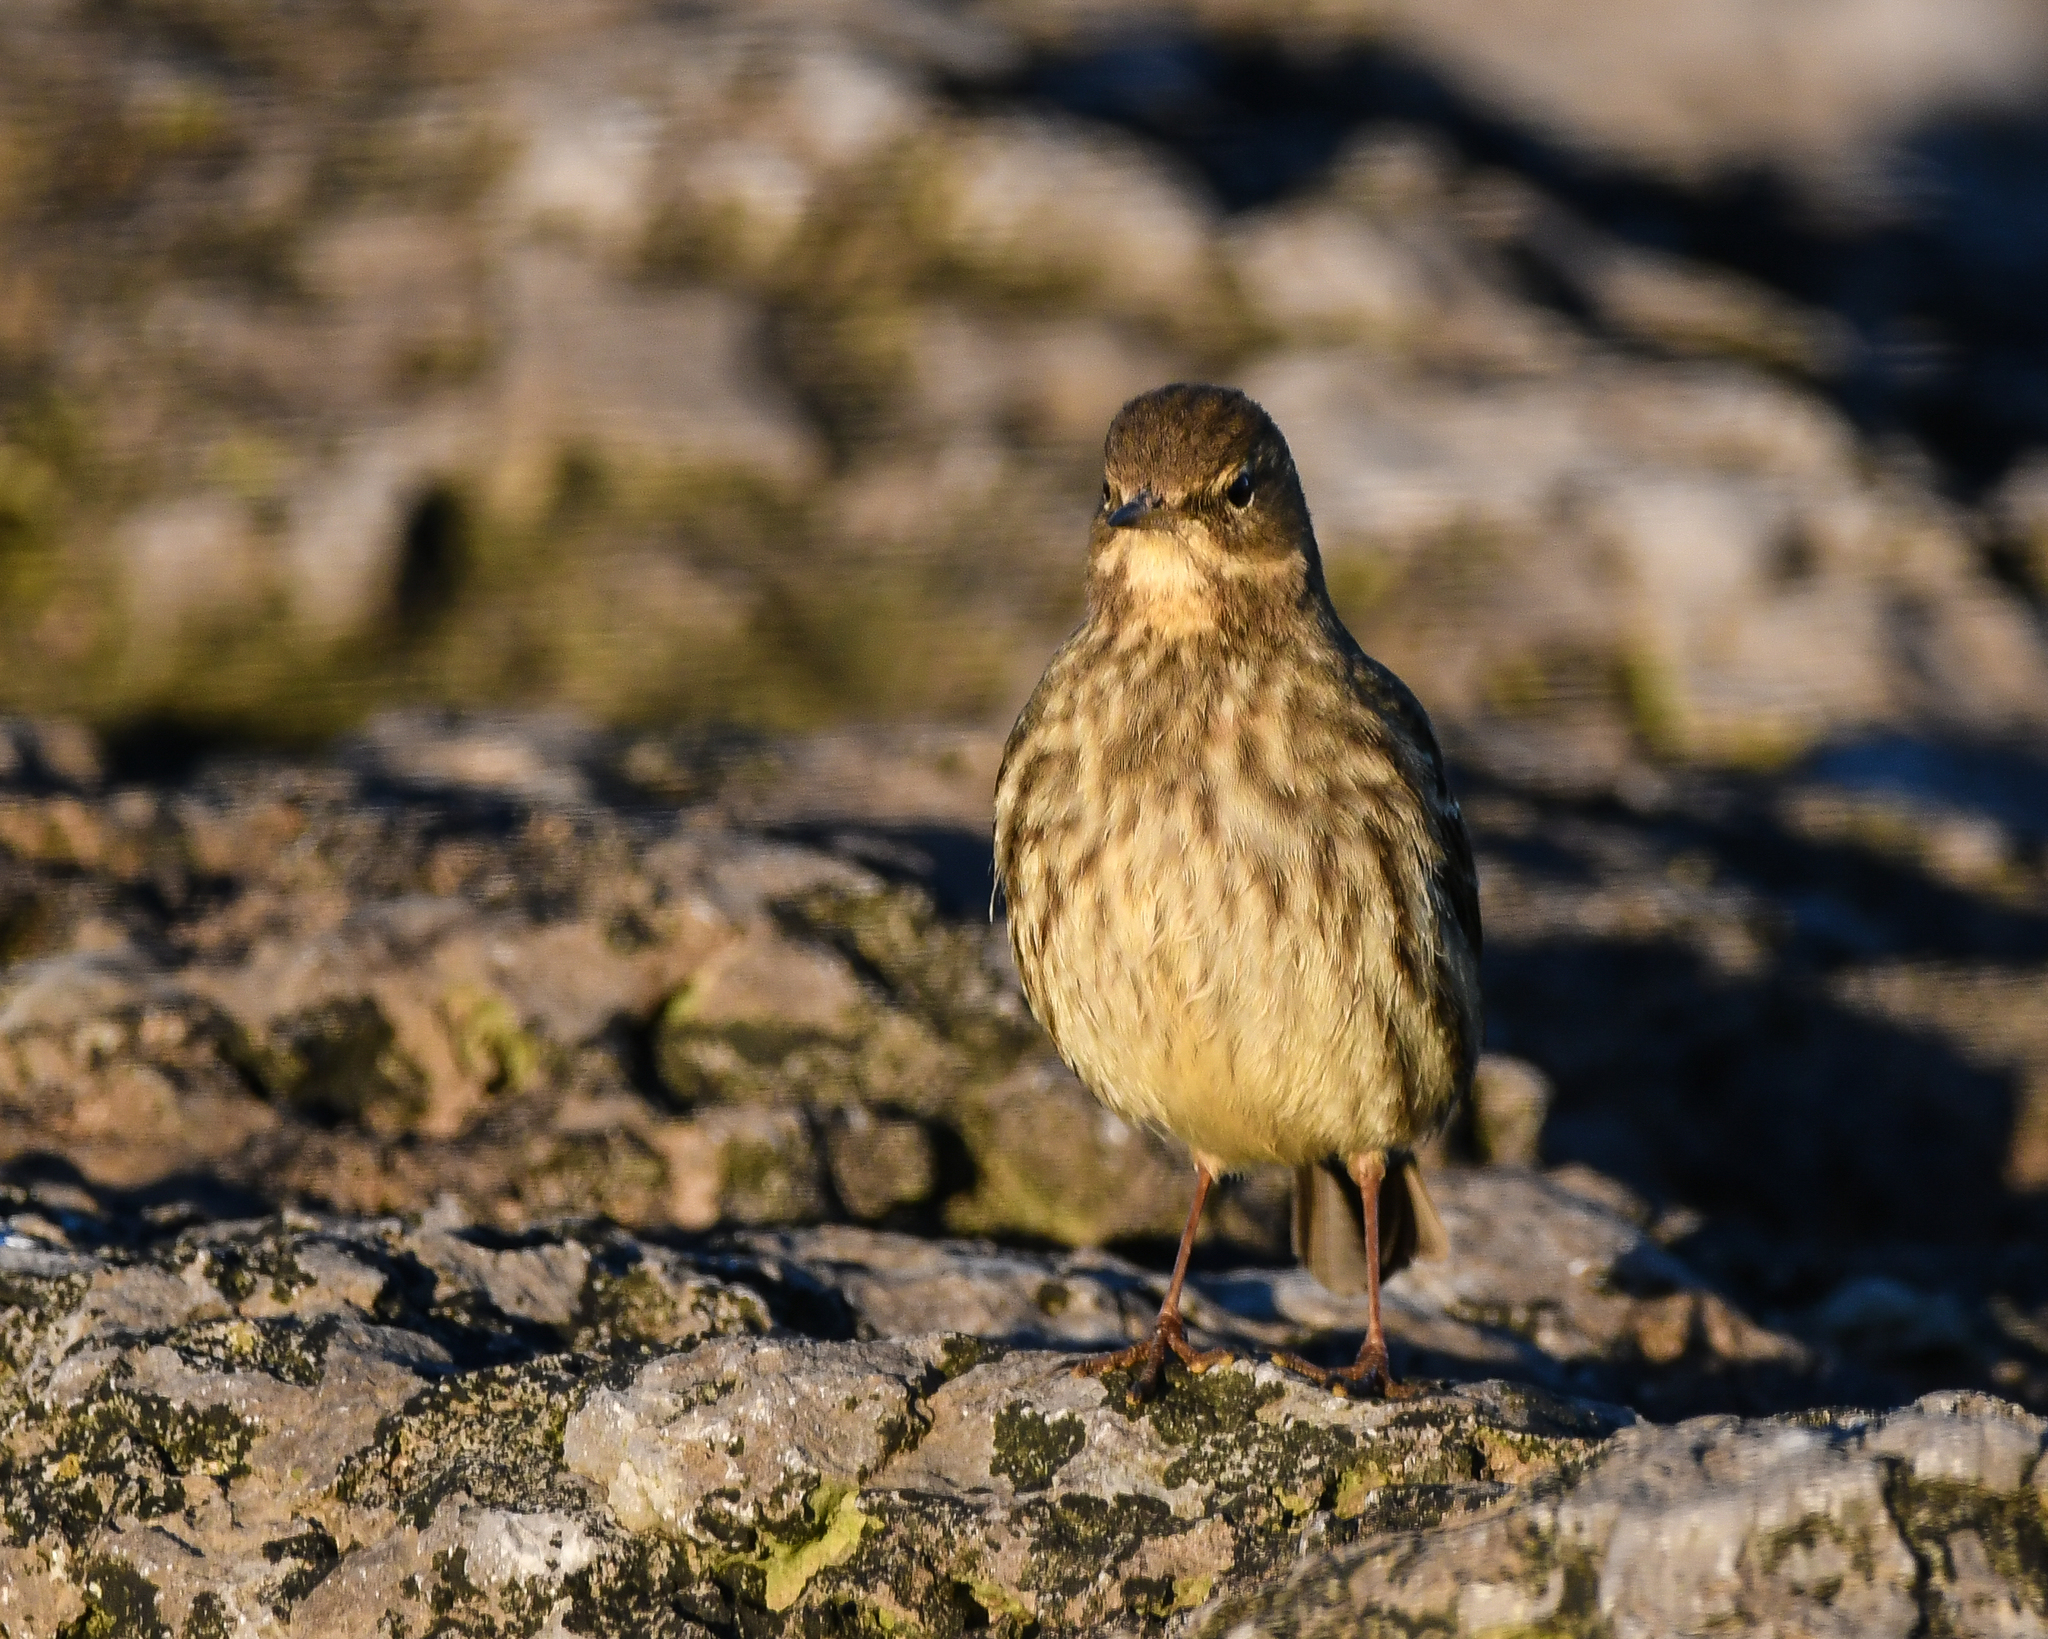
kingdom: Animalia
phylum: Chordata
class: Aves
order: Passeriformes
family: Motacillidae
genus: Anthus
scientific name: Anthus petrosus
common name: Eurasian rock pipit
